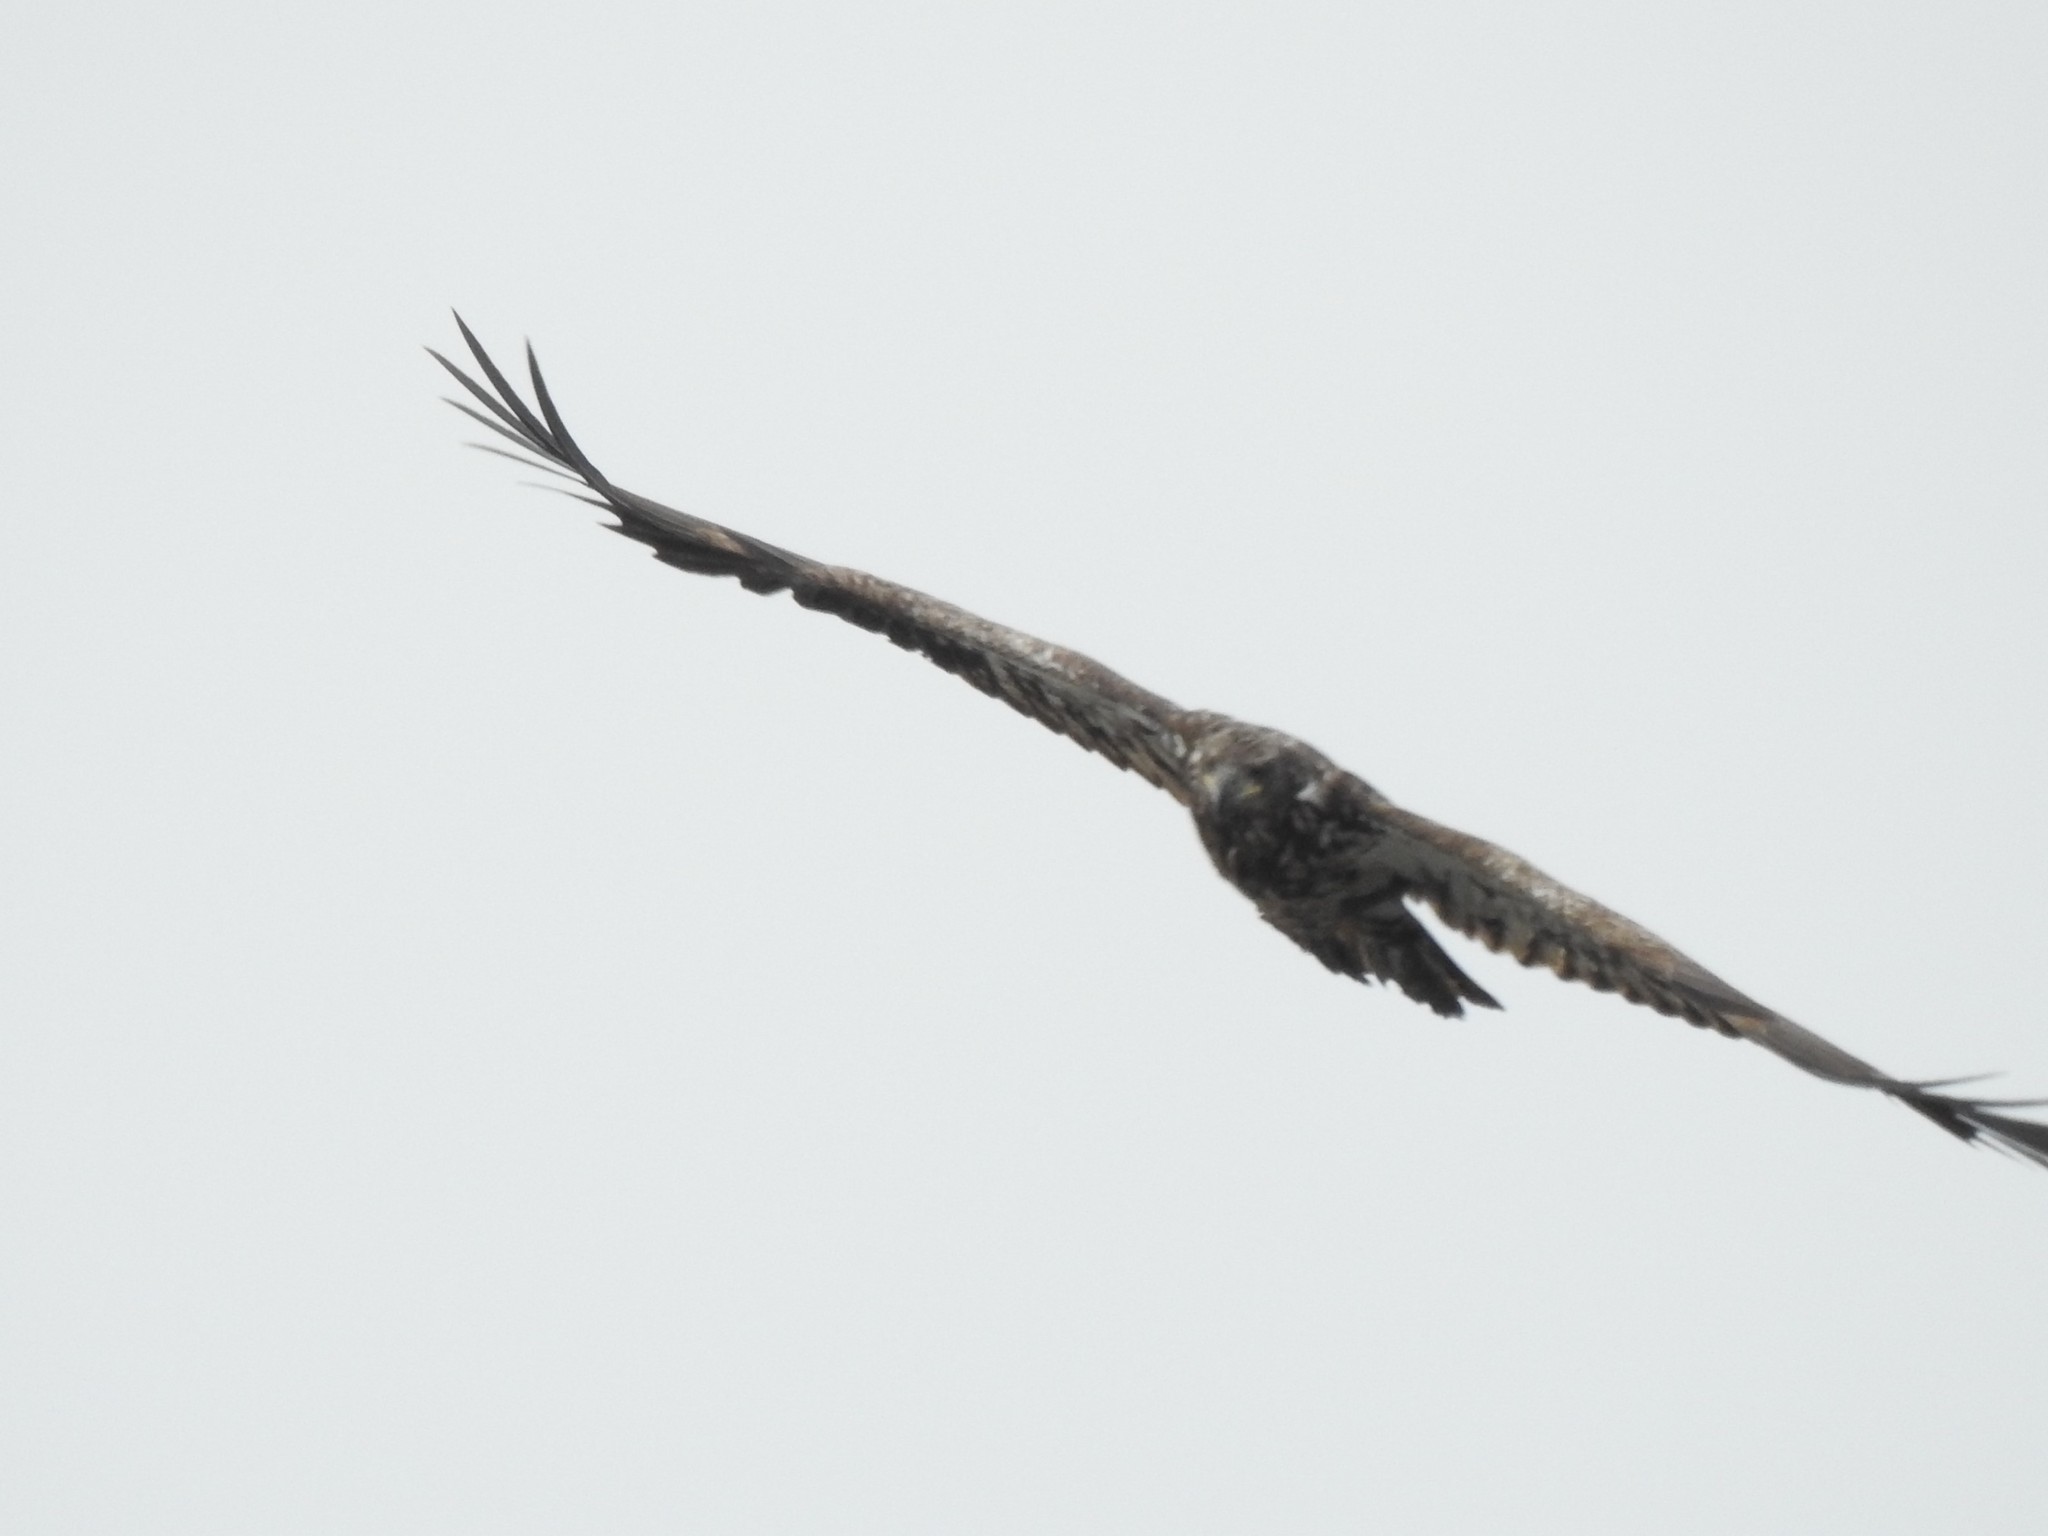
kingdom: Animalia
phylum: Chordata
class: Aves
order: Accipitriformes
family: Accipitridae
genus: Haliaeetus
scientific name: Haliaeetus leucocephalus
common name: Bald eagle
